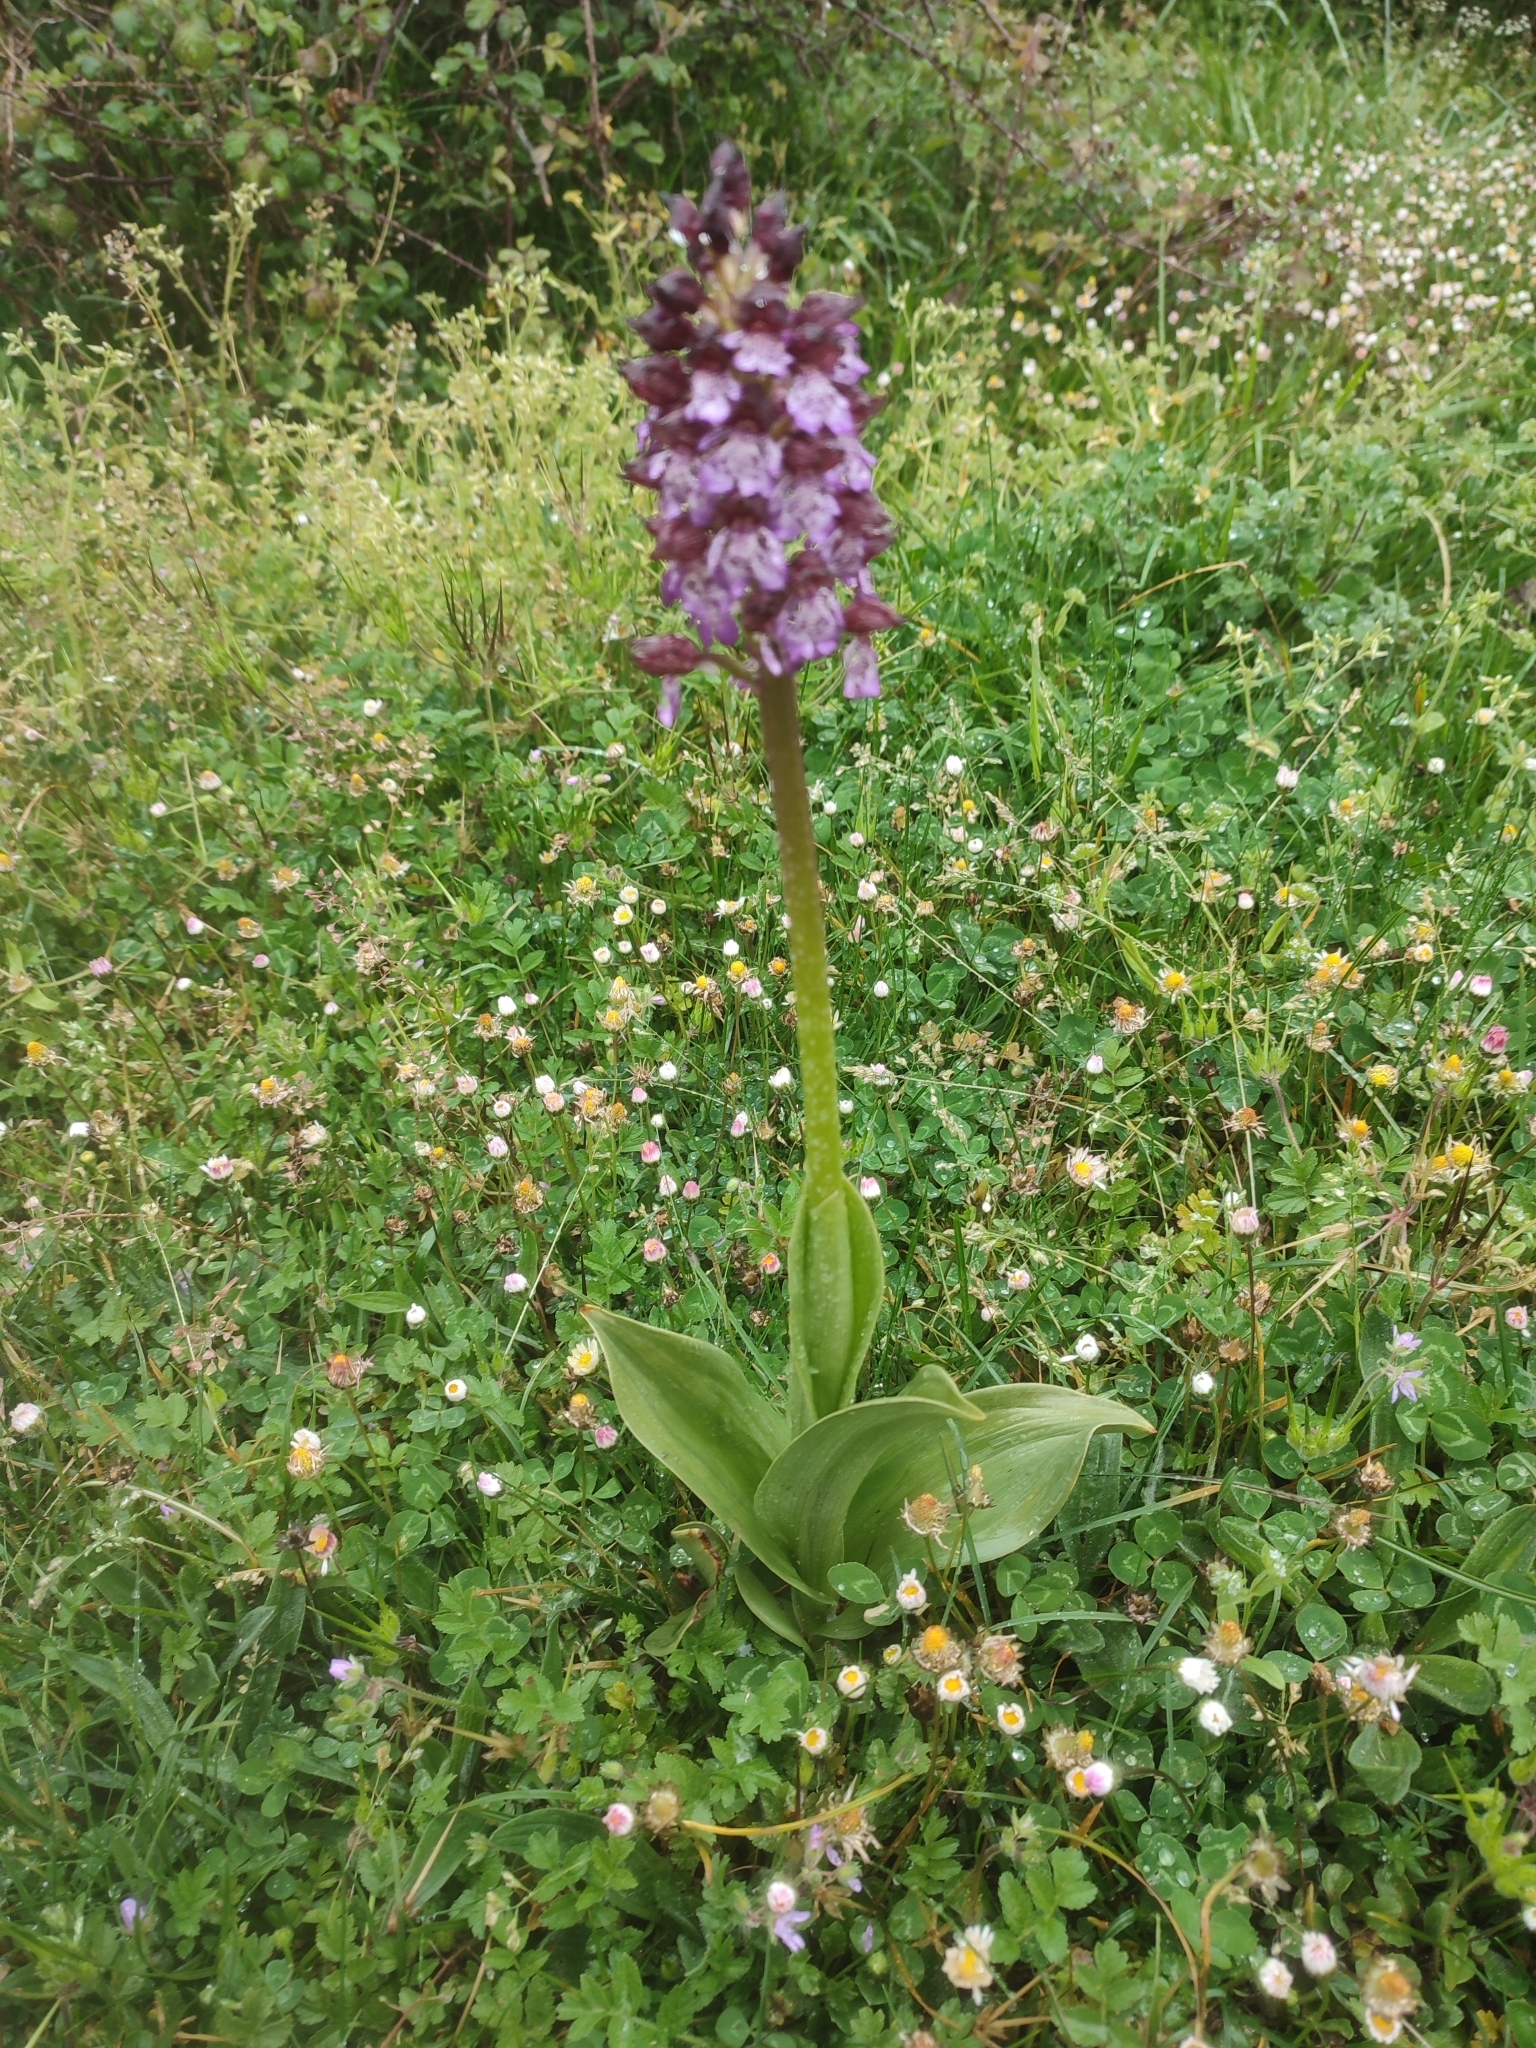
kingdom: Plantae
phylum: Tracheophyta
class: Liliopsida
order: Asparagales
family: Orchidaceae
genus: Orchis
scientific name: Orchis purpurea
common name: Lady orchid
